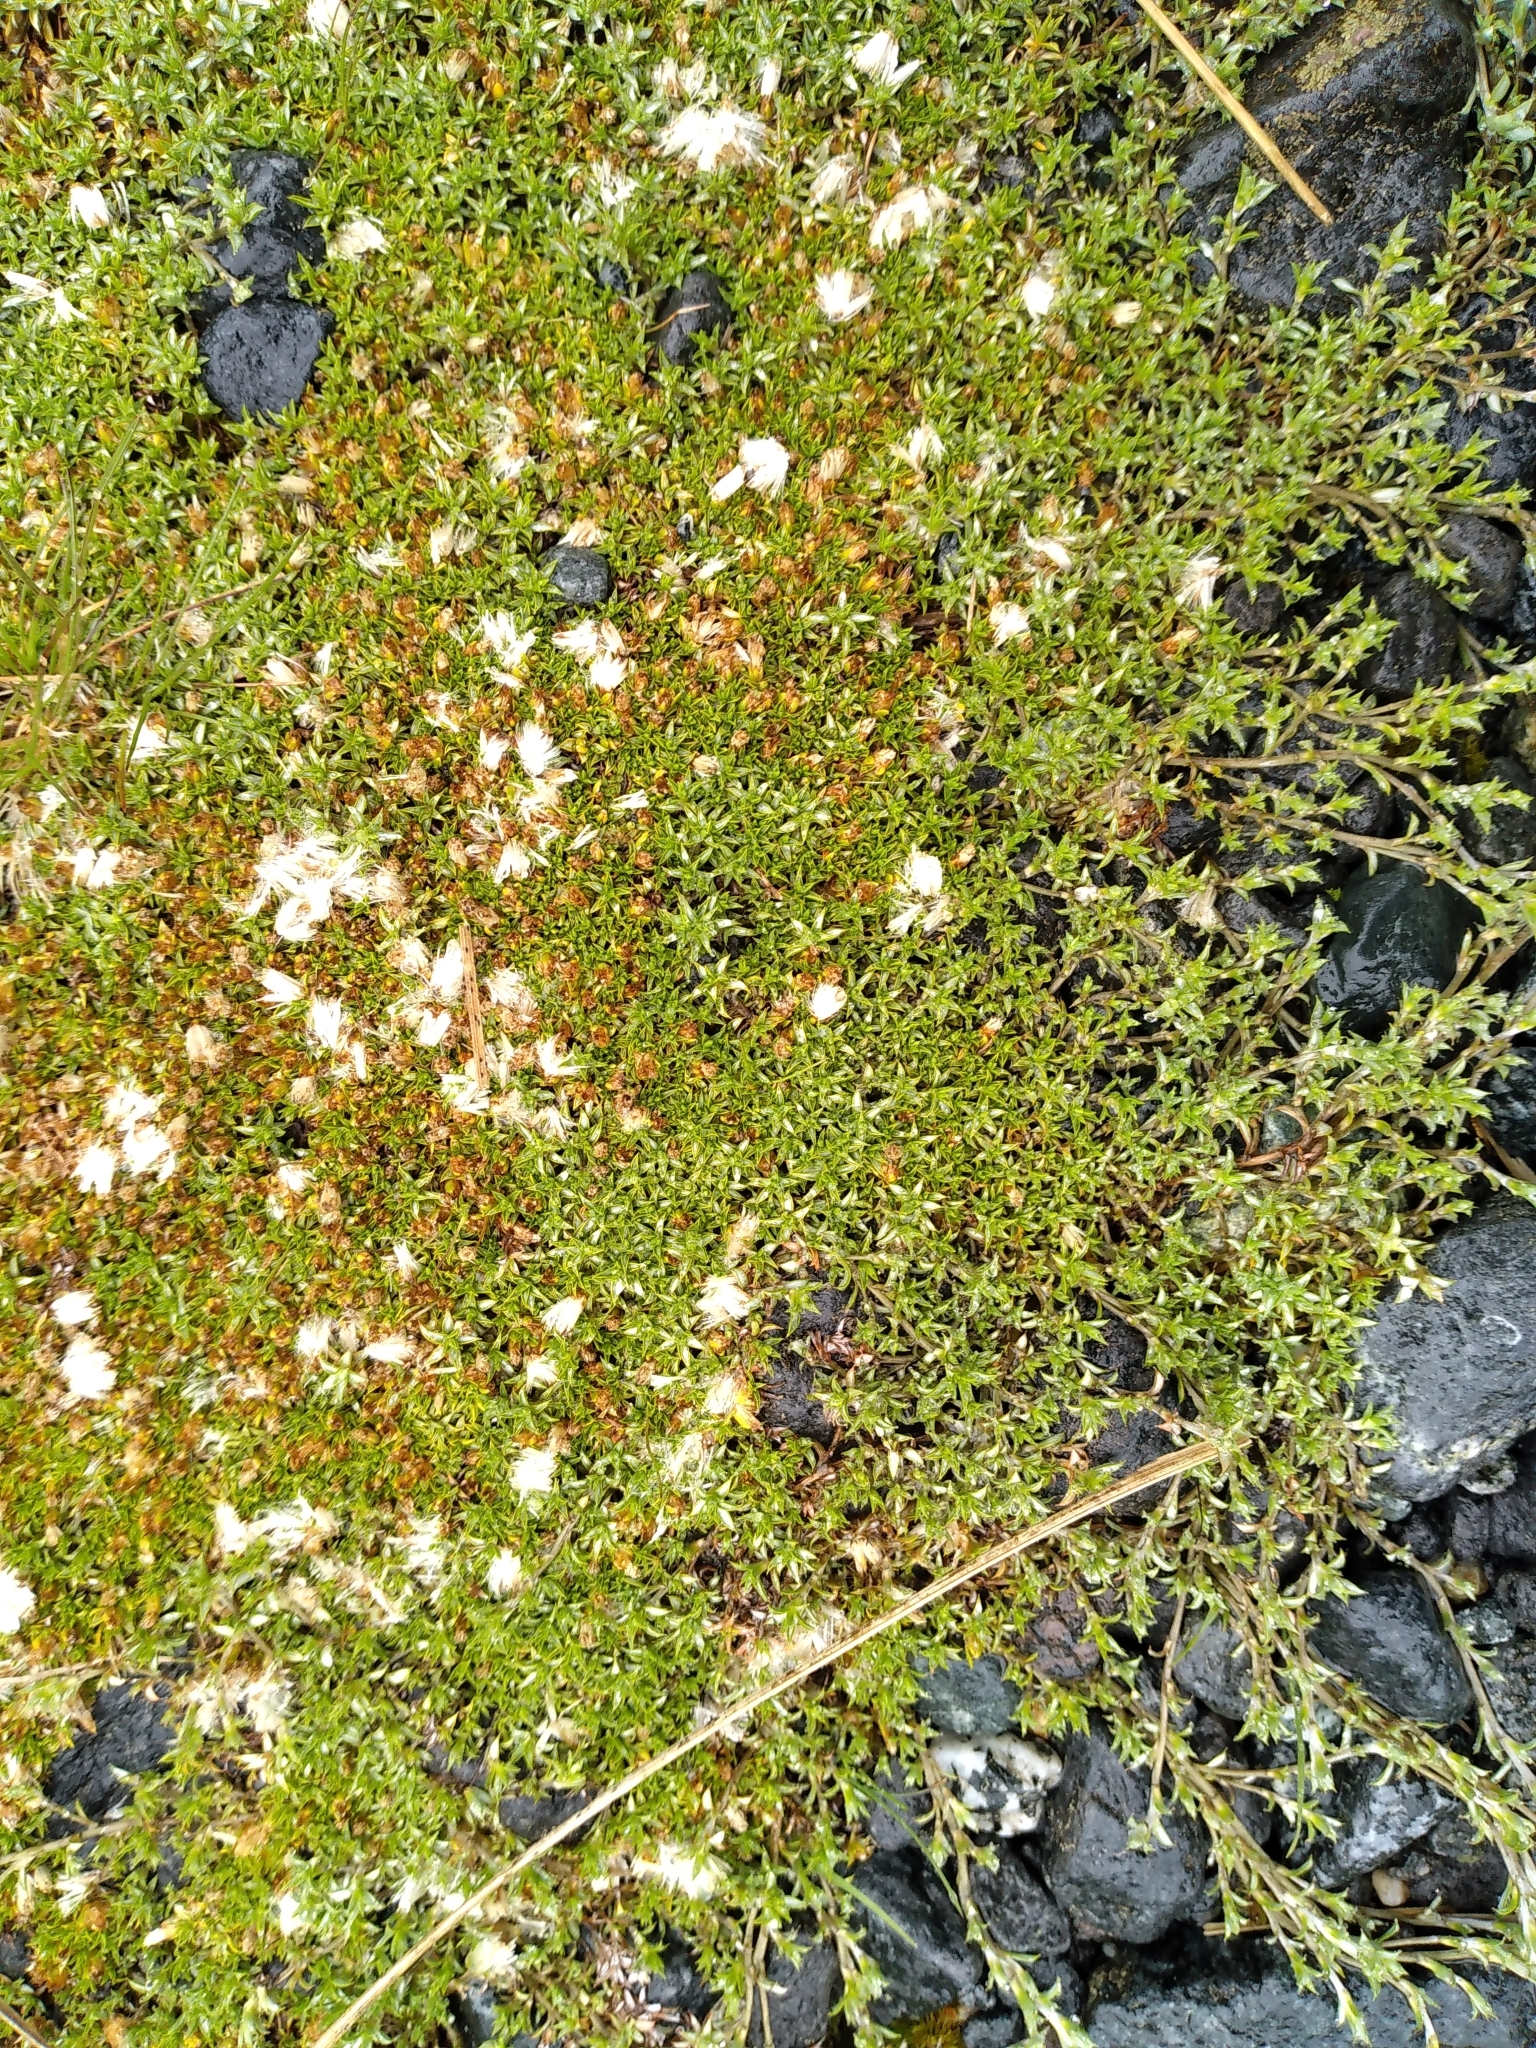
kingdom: Plantae
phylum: Tracheophyta
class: Magnoliopsida
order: Asterales
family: Asteraceae
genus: Raoulia
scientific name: Raoulia tenuicaulis
